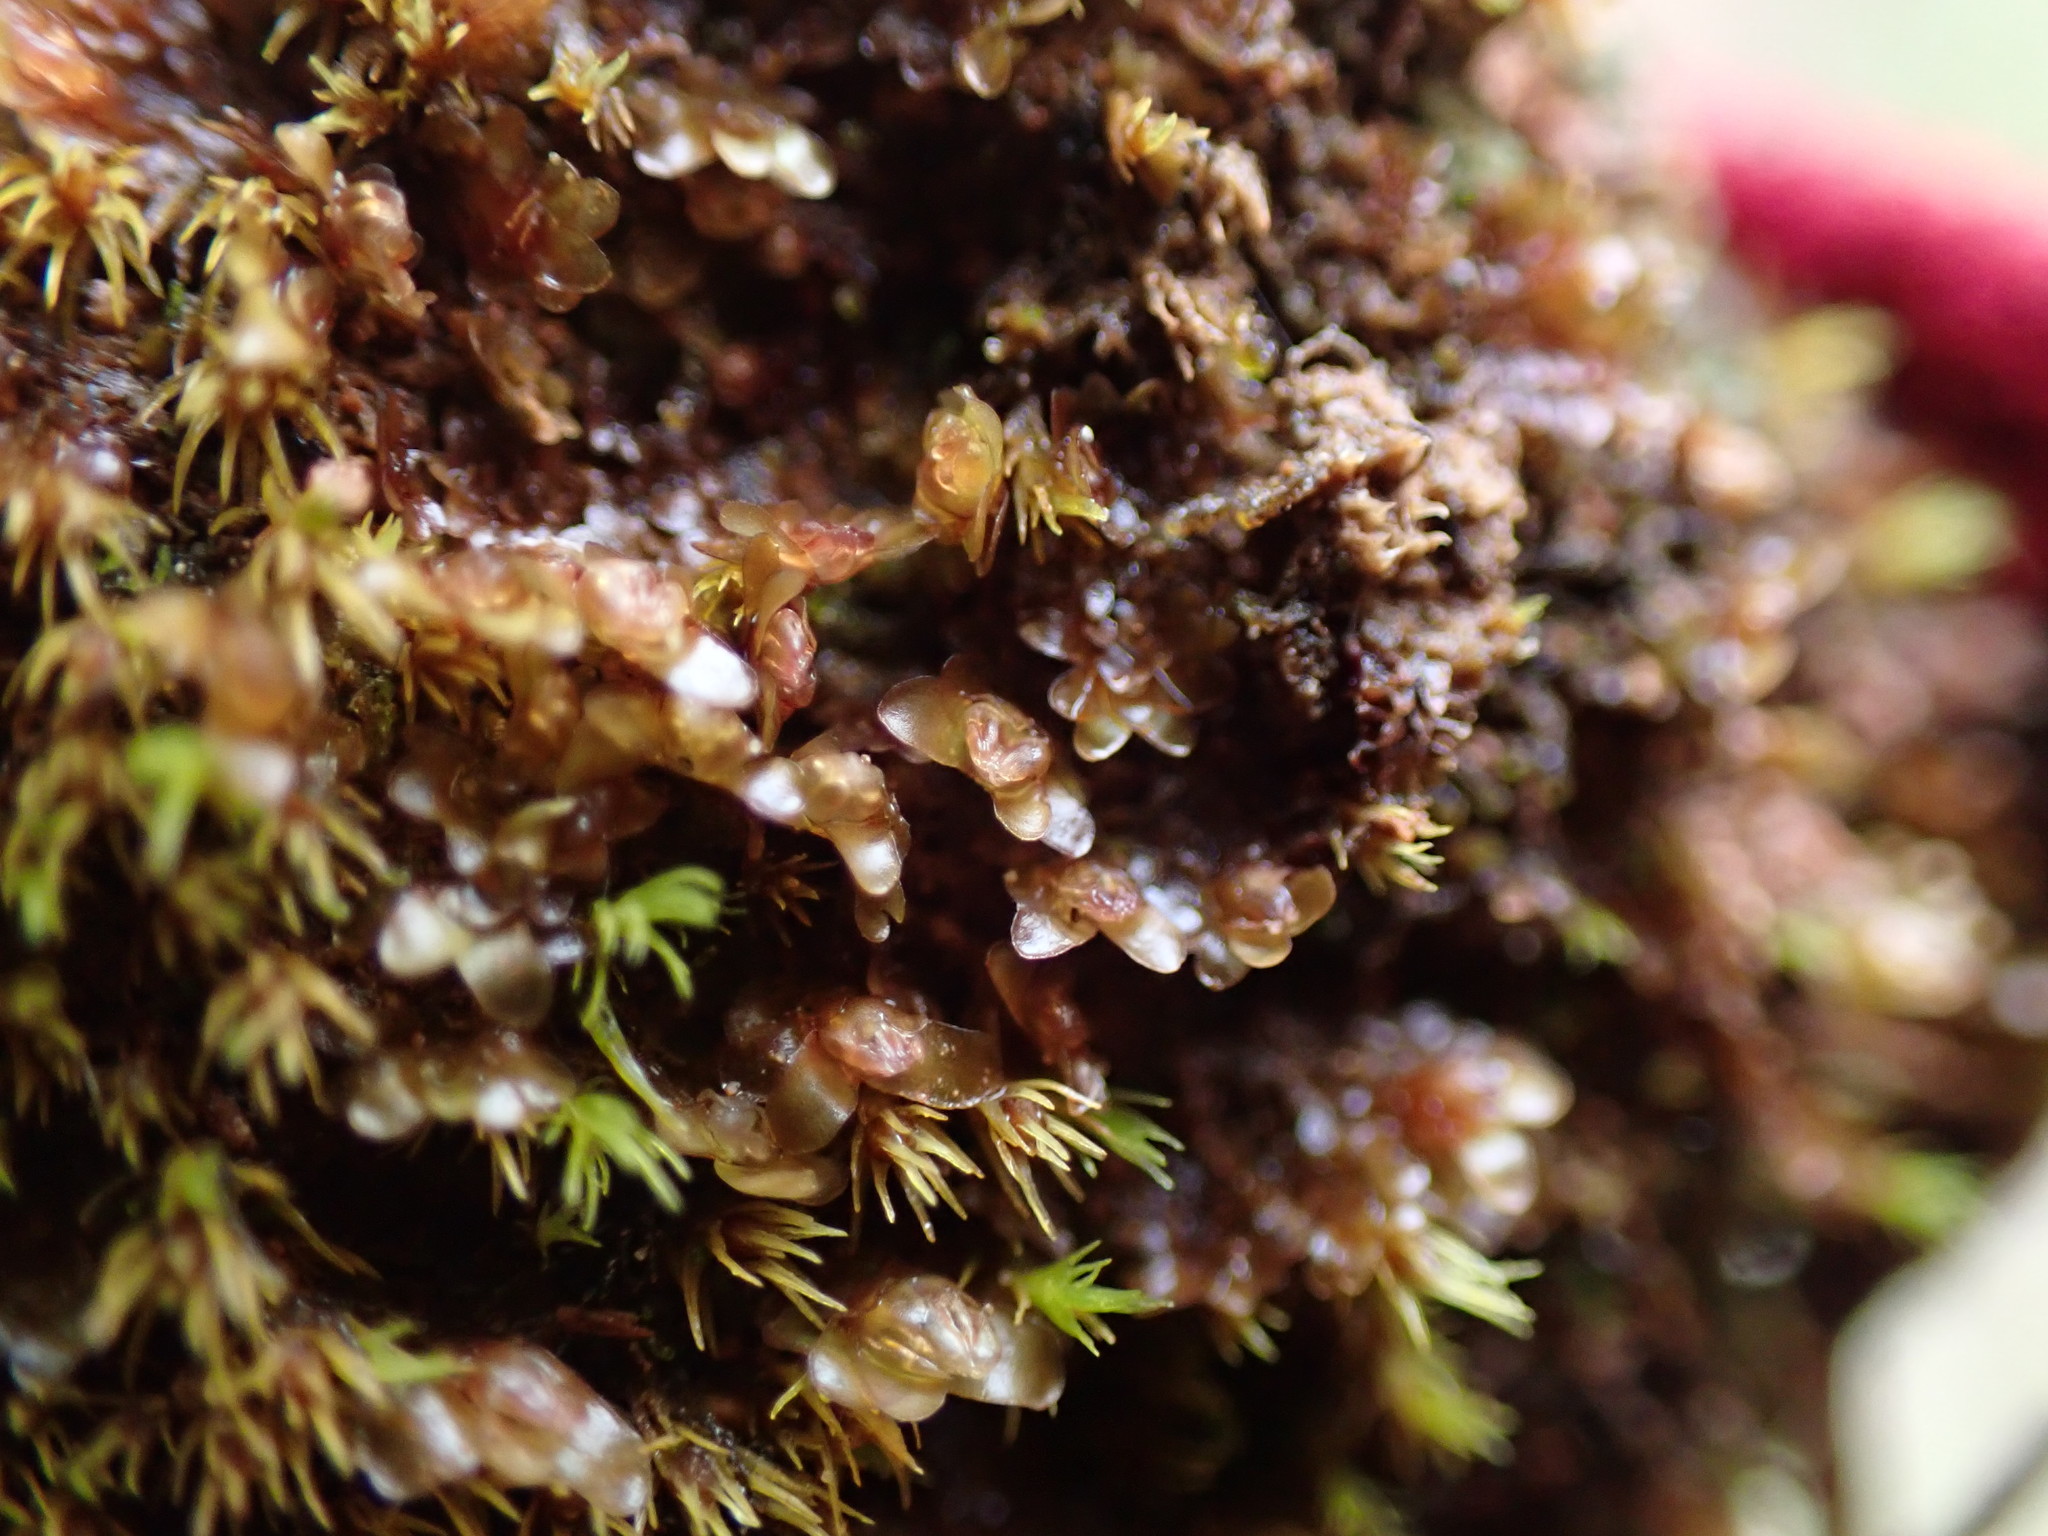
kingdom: Plantae
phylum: Marchantiophyta
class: Jungermanniopsida
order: Jungermanniales
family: Scapaniaceae
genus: Diplophyllum
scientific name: Diplophyllum obtusifolium
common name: Blunt-leaved earwort
